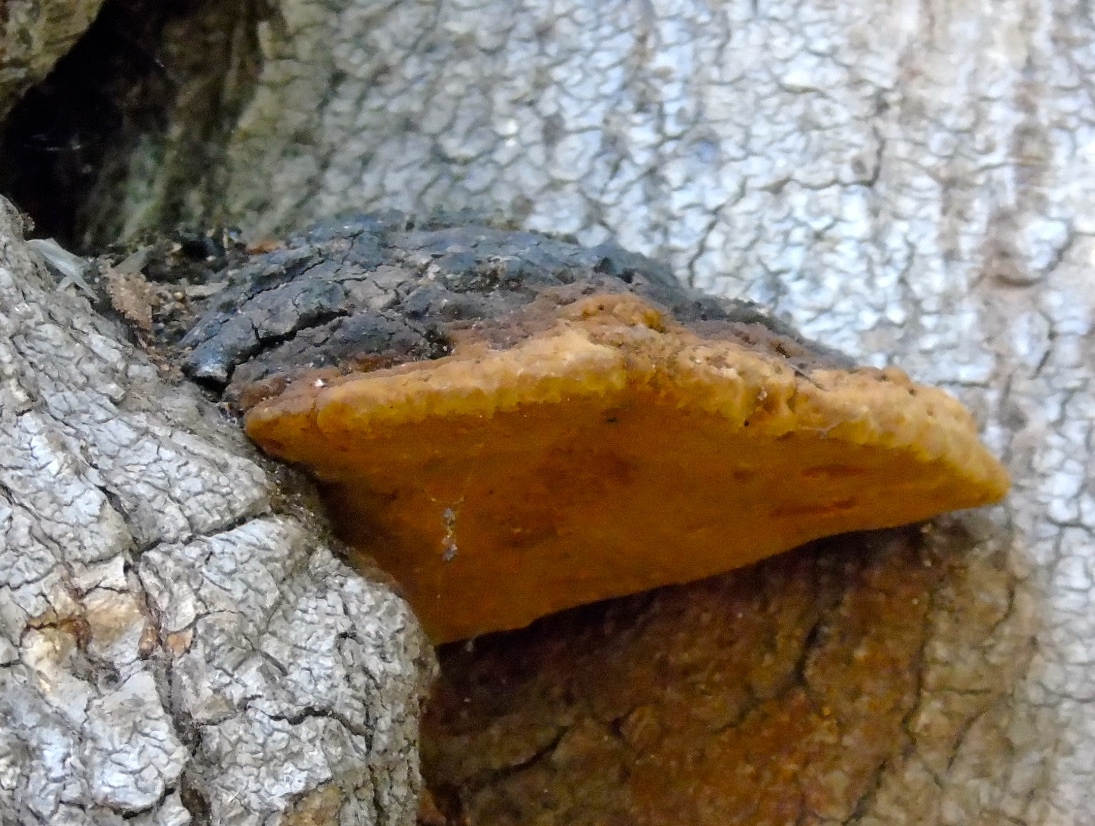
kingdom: Fungi
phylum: Basidiomycota
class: Agaricomycetes
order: Hymenochaetales
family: Hymenochaetaceae
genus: Phellinus
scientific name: Phellinus
